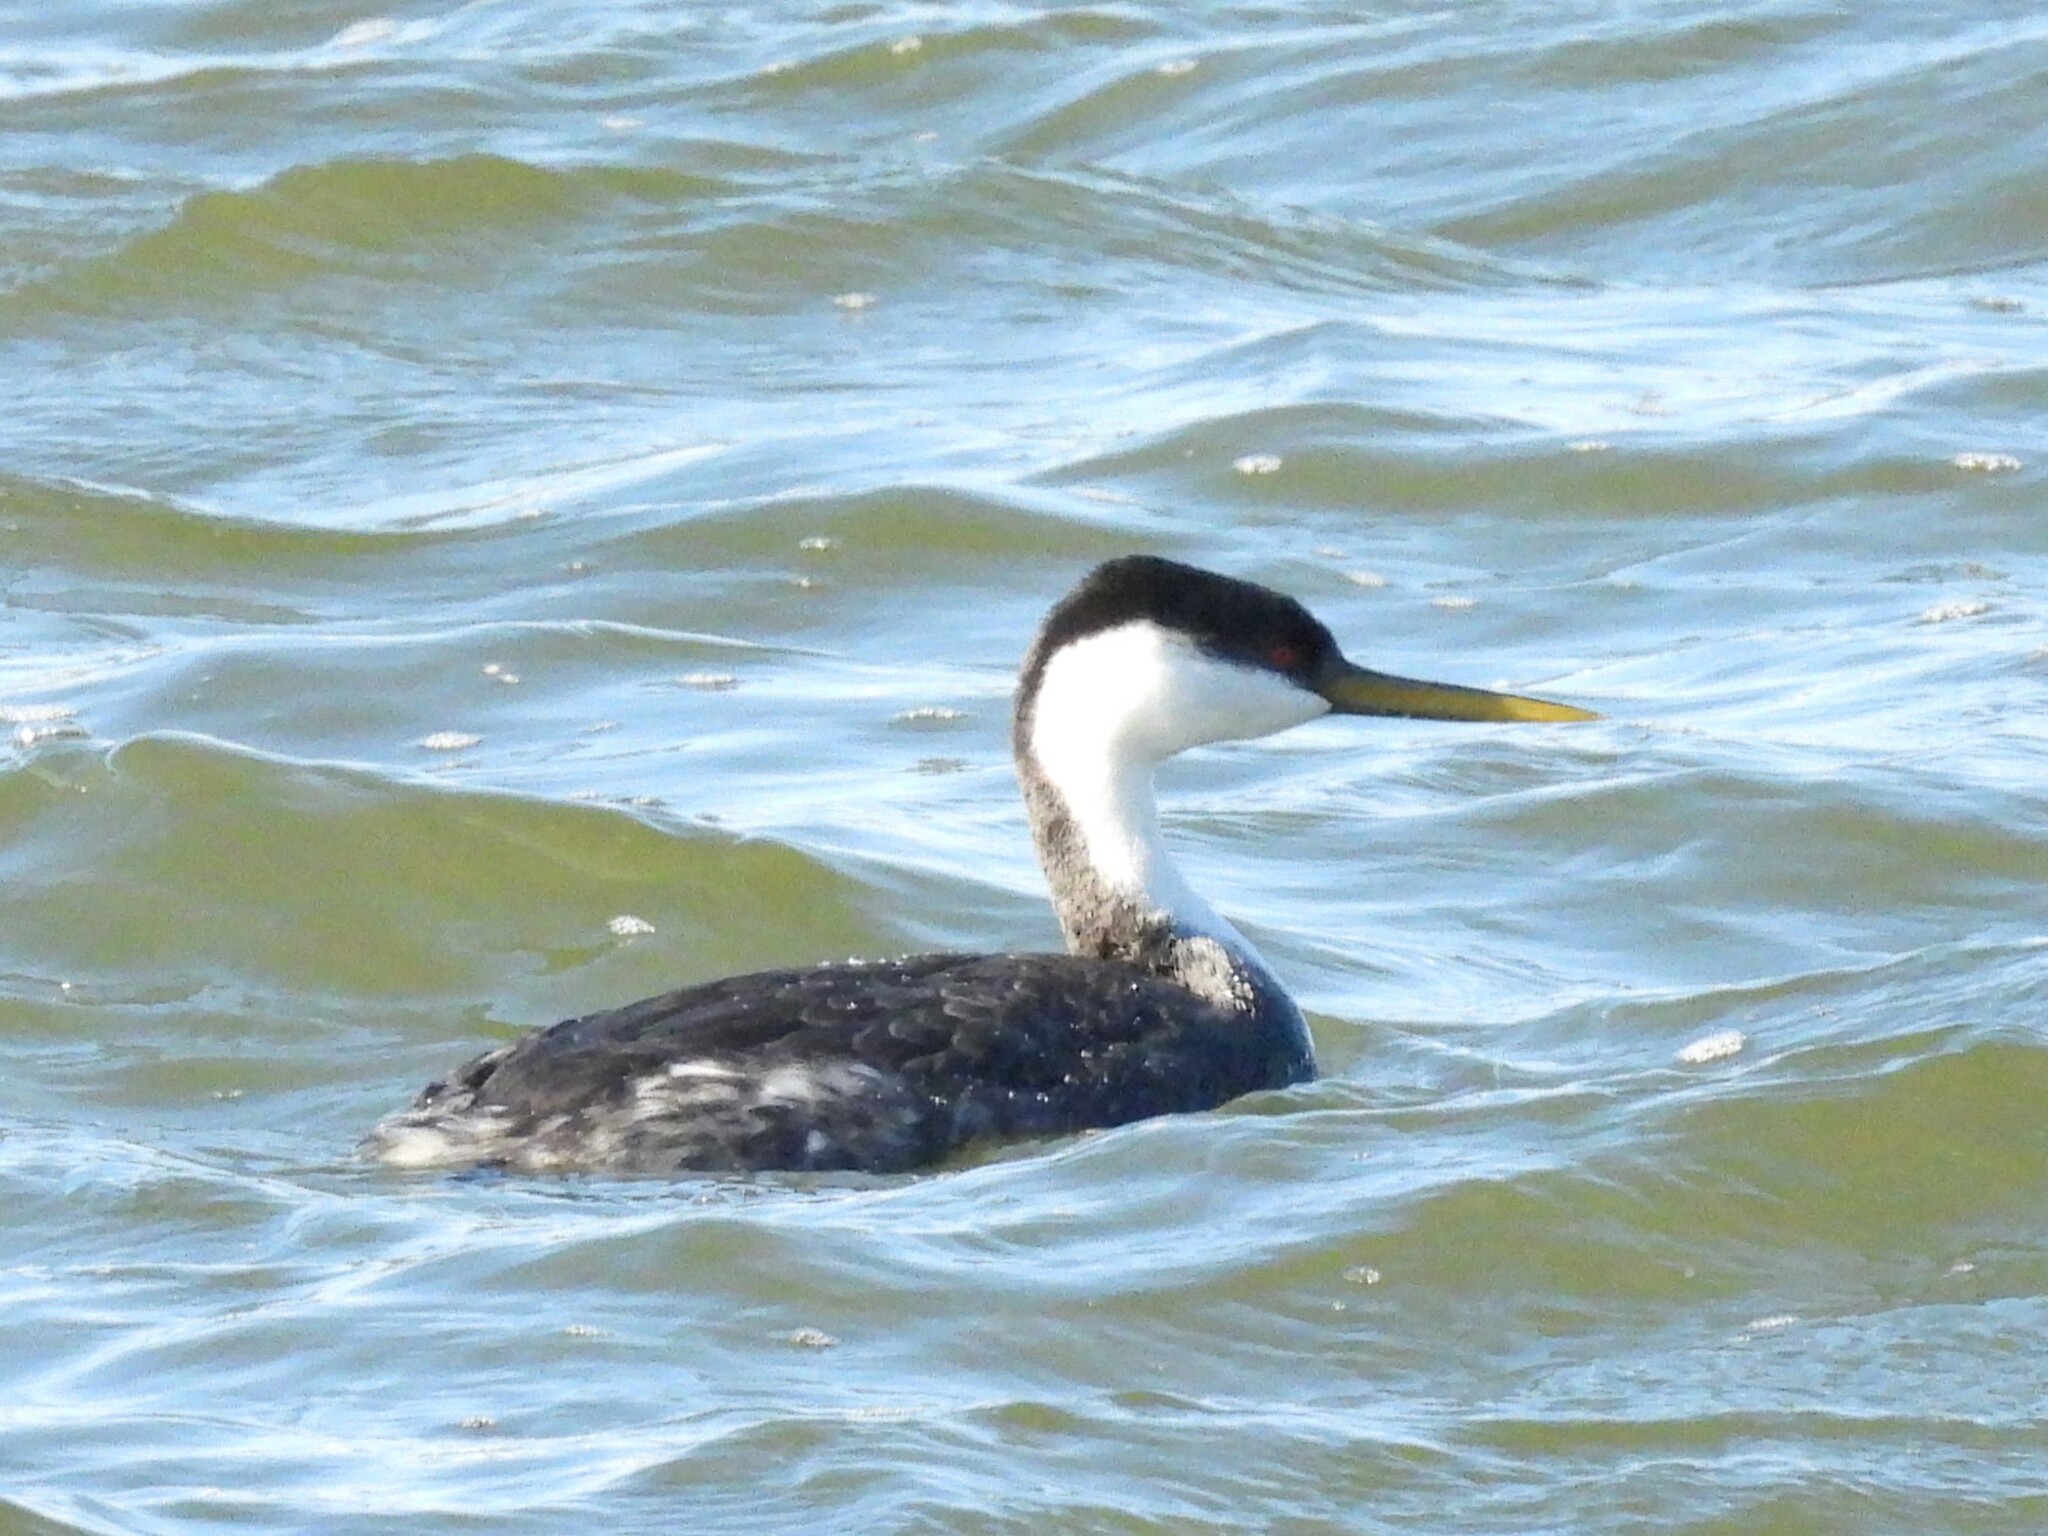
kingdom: Animalia
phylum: Chordata
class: Aves
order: Podicipediformes
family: Podicipedidae
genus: Aechmophorus
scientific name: Aechmophorus occidentalis
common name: Western grebe
